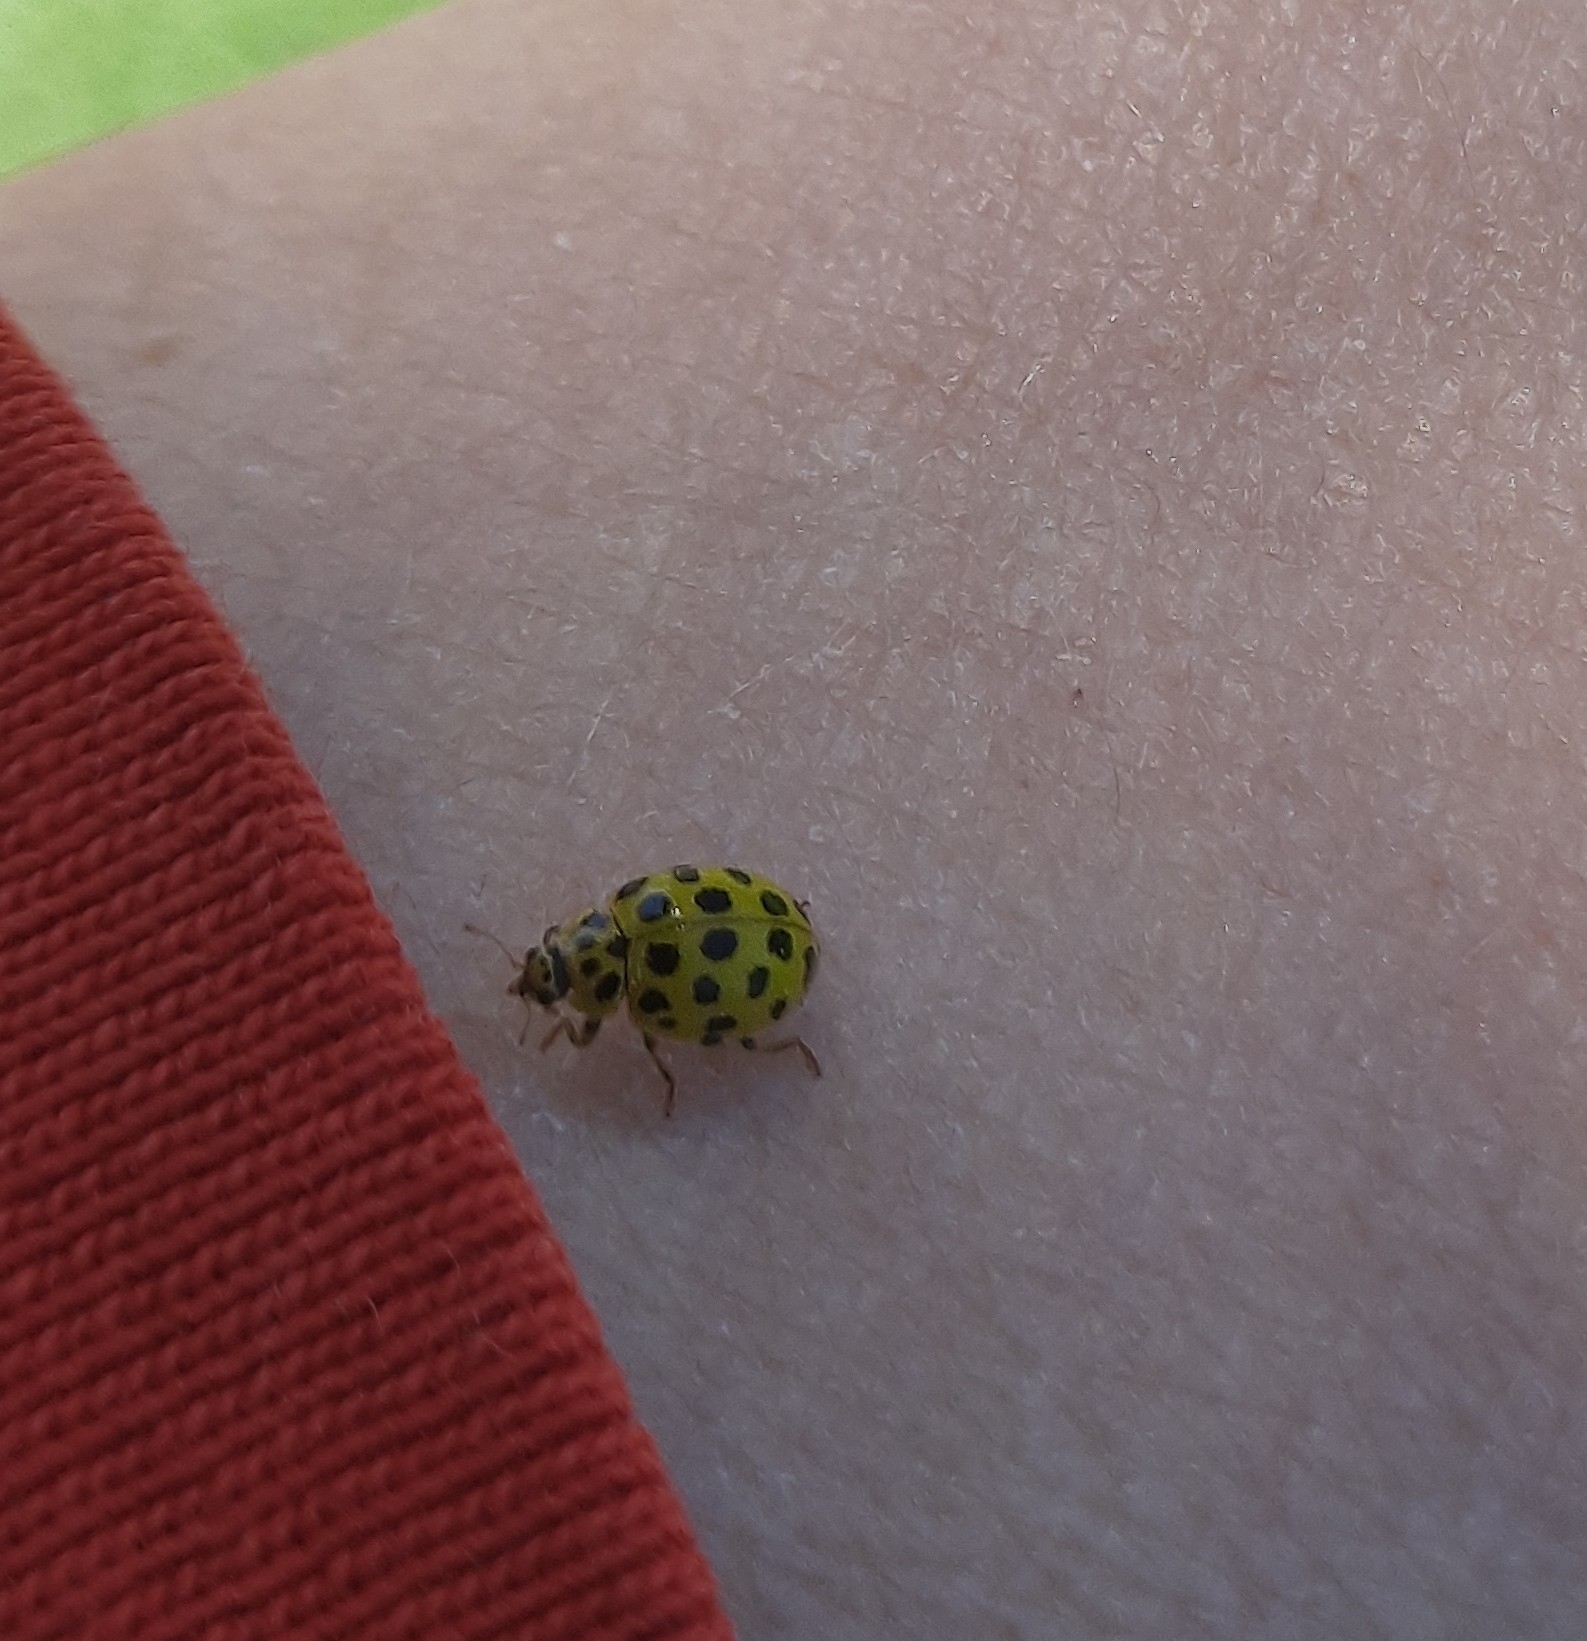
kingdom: Animalia
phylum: Arthropoda
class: Insecta
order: Coleoptera
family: Coccinellidae
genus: Psyllobora
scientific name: Psyllobora vigintiduopunctata
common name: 22-spot ladybird
